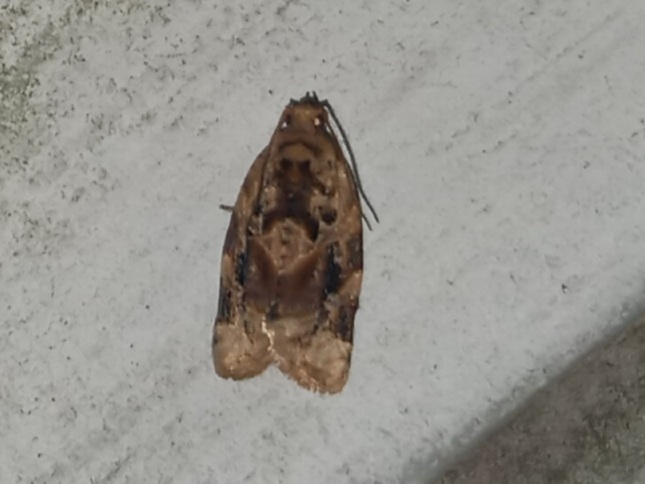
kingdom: Animalia
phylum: Arthropoda
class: Insecta
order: Lepidoptera
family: Tortricidae
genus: Argyrotaenia
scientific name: Argyrotaenia velutinana
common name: Red-banded leafroller moth
